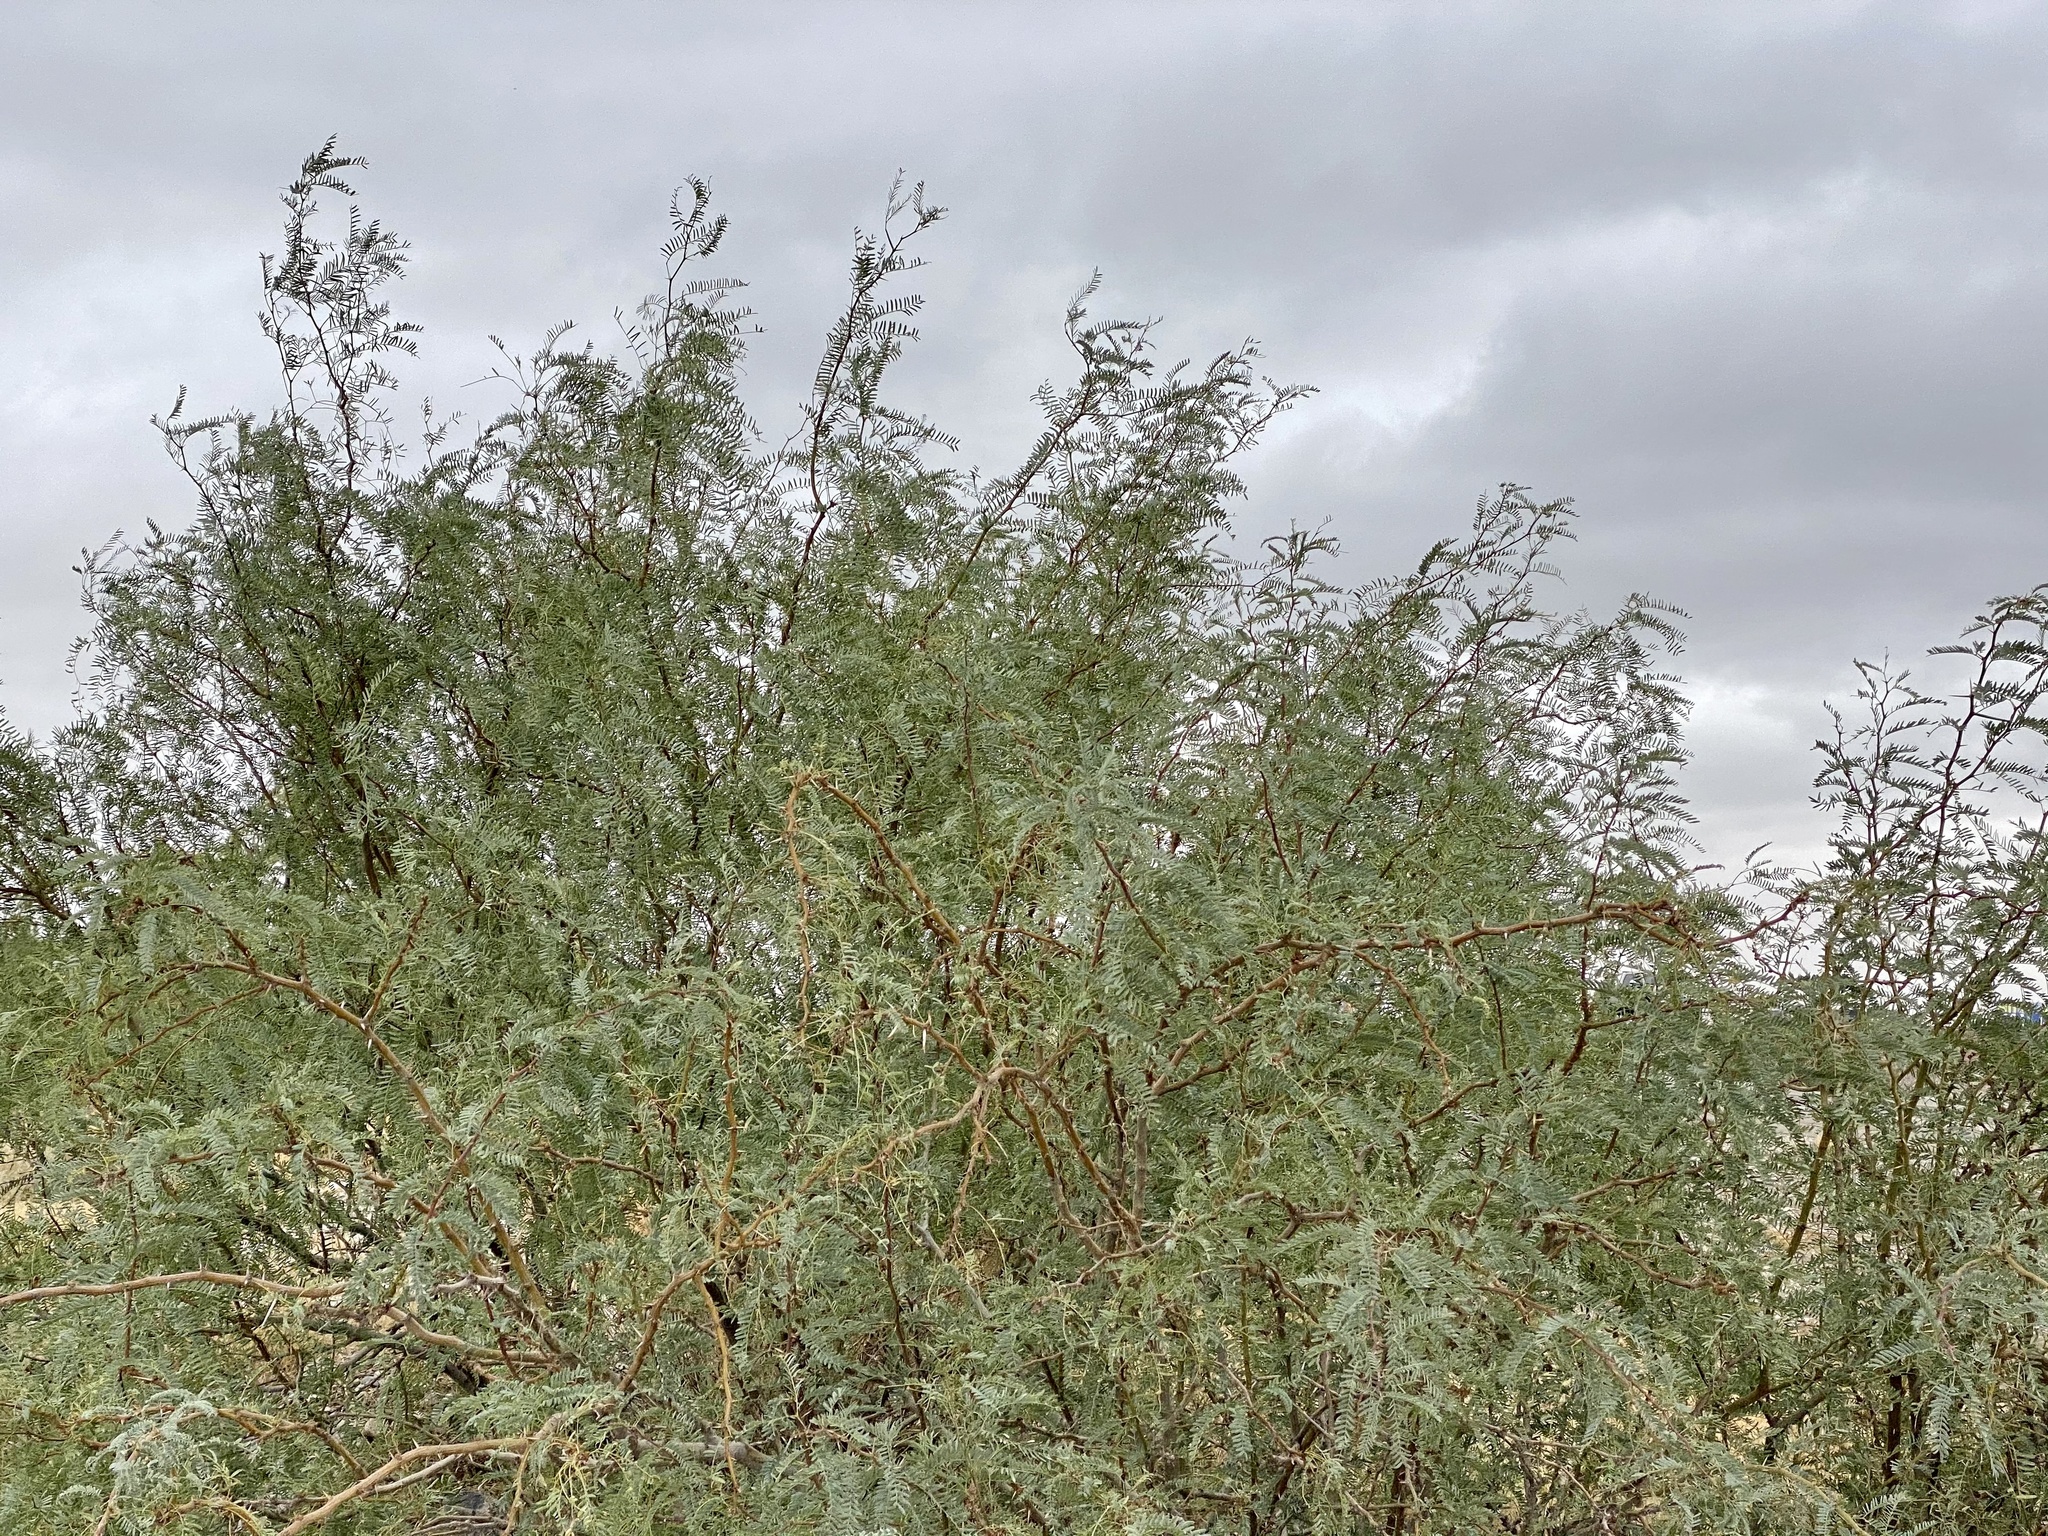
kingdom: Plantae
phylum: Tracheophyta
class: Magnoliopsida
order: Fabales
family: Fabaceae
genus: Prosopis
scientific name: Prosopis glandulosa
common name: Honey mesquite
